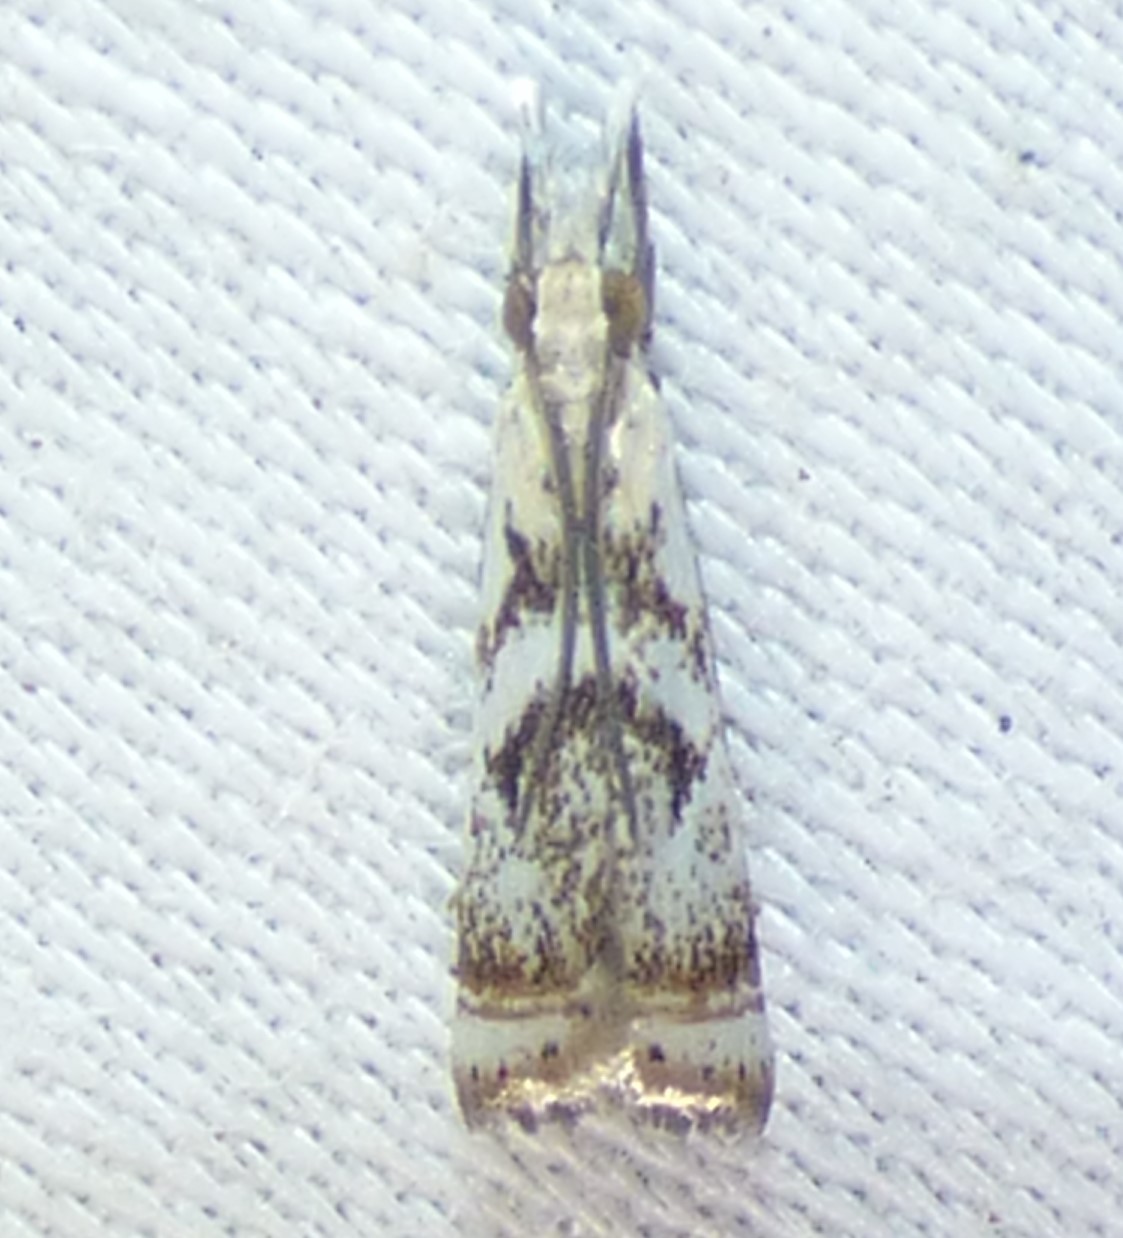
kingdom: Animalia
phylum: Arthropoda
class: Insecta
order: Lepidoptera
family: Crambidae
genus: Microcrambus
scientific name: Microcrambus elegans
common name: Elegant grass-veneer
